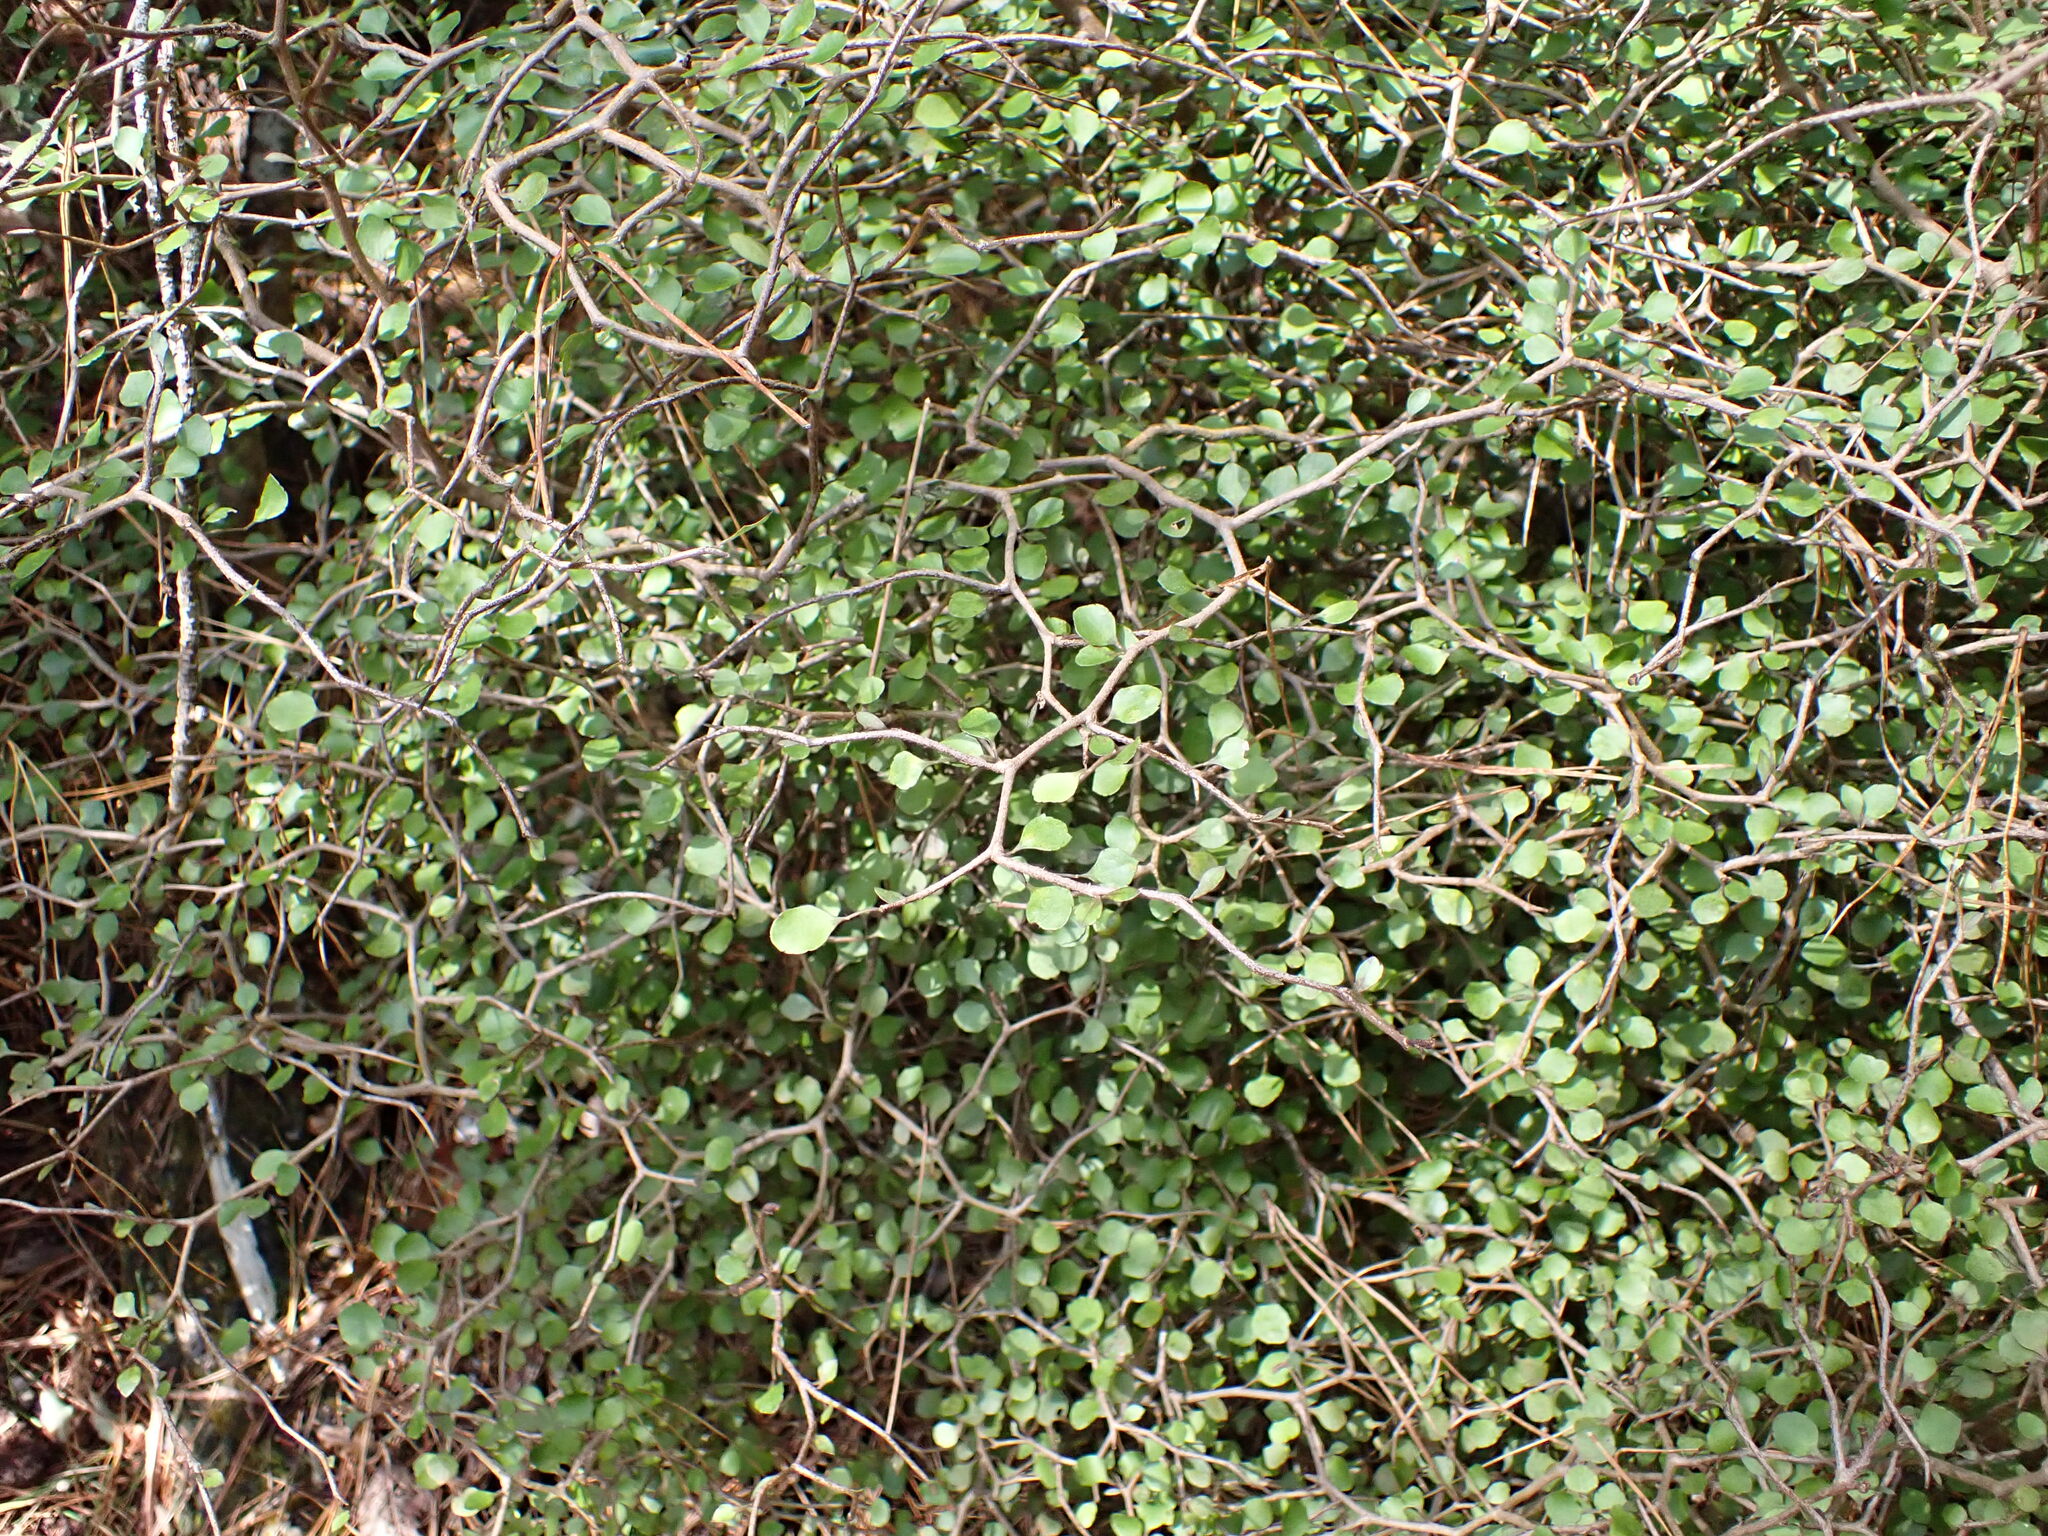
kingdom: Plantae
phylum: Tracheophyta
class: Magnoliopsida
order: Apiales
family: Araliaceae
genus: Raukaua
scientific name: Raukaua anomalus
